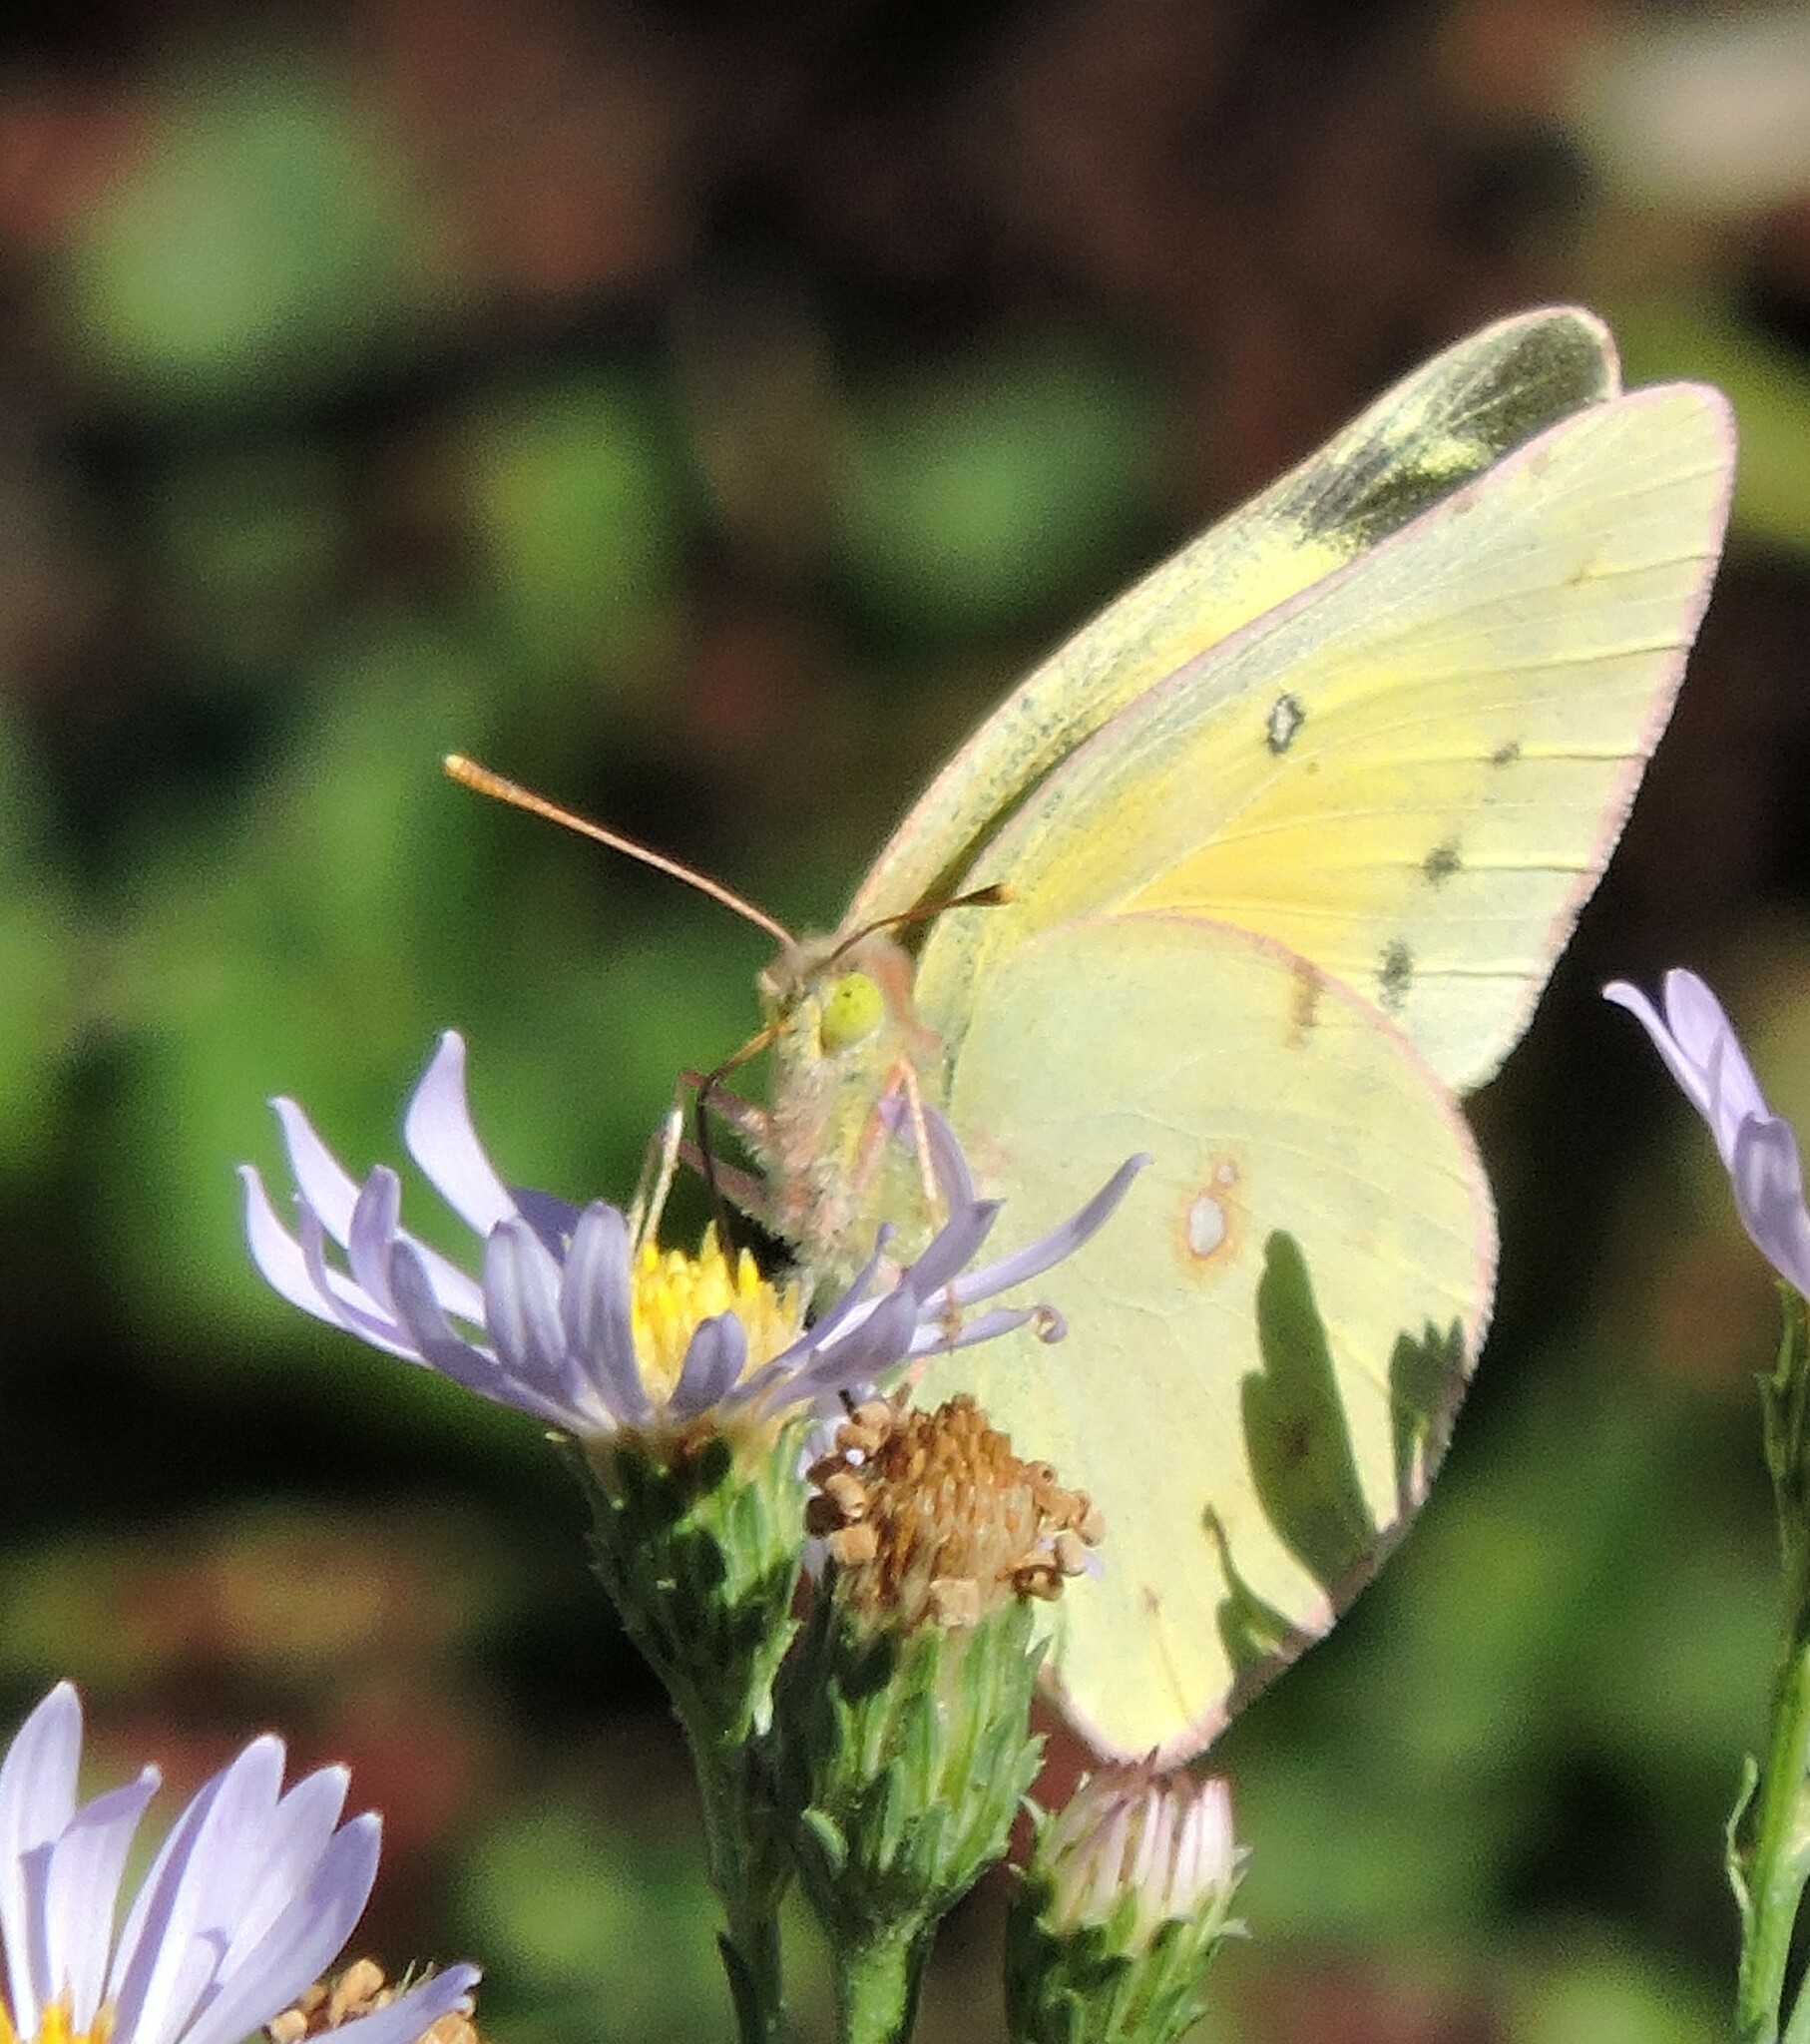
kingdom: Animalia
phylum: Arthropoda
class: Insecta
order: Lepidoptera
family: Pieridae
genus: Colias
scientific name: Colias eurytheme
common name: Alfalfa butterfly
